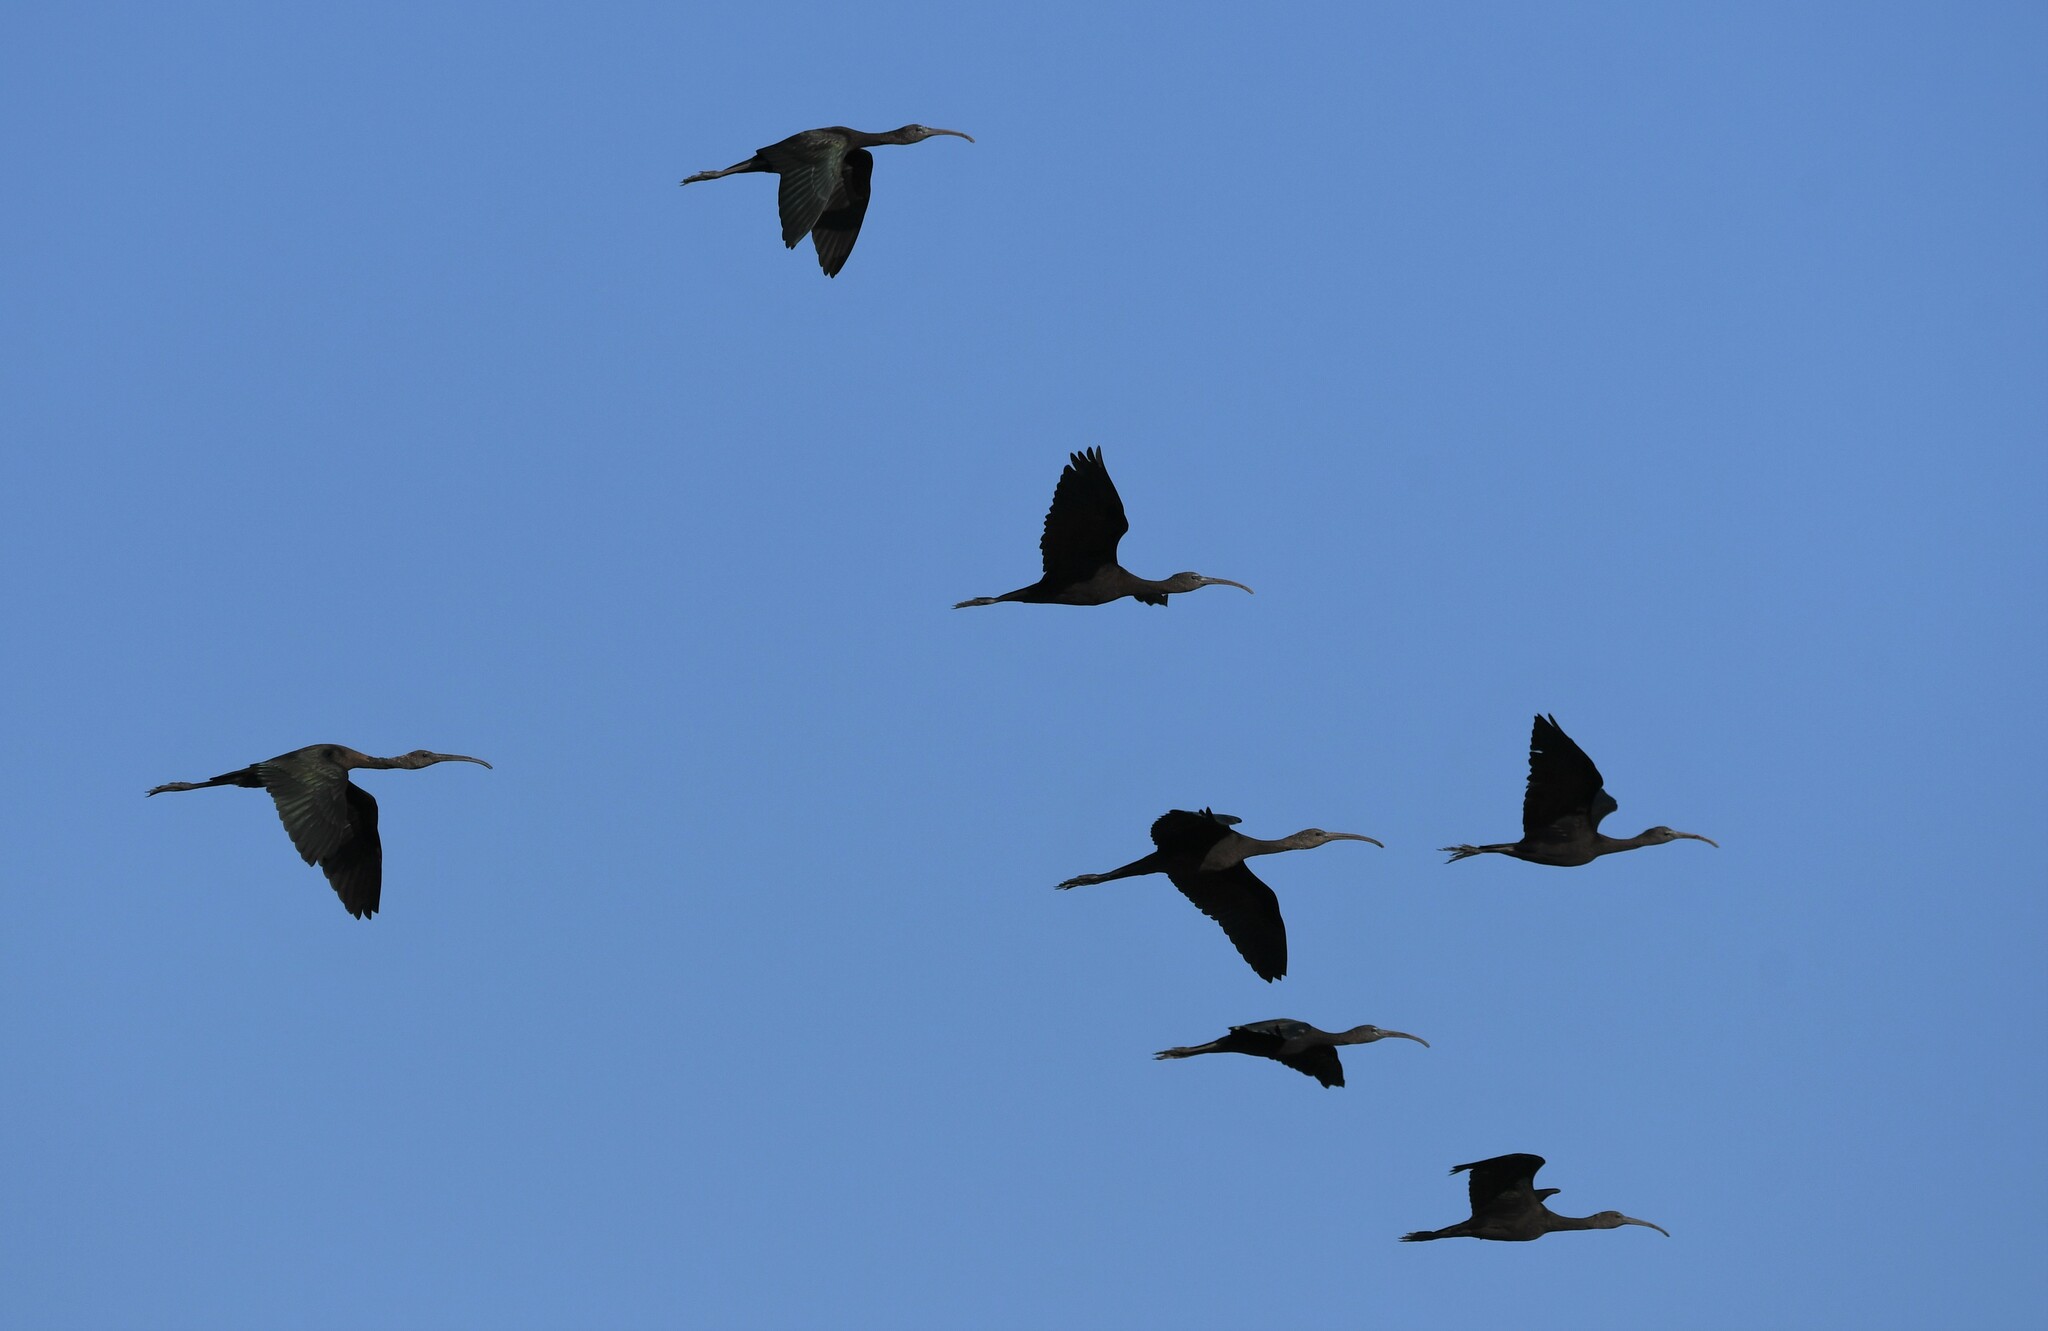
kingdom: Animalia
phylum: Chordata
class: Aves
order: Pelecaniformes
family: Threskiornithidae
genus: Plegadis
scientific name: Plegadis falcinellus
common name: Glossy ibis
